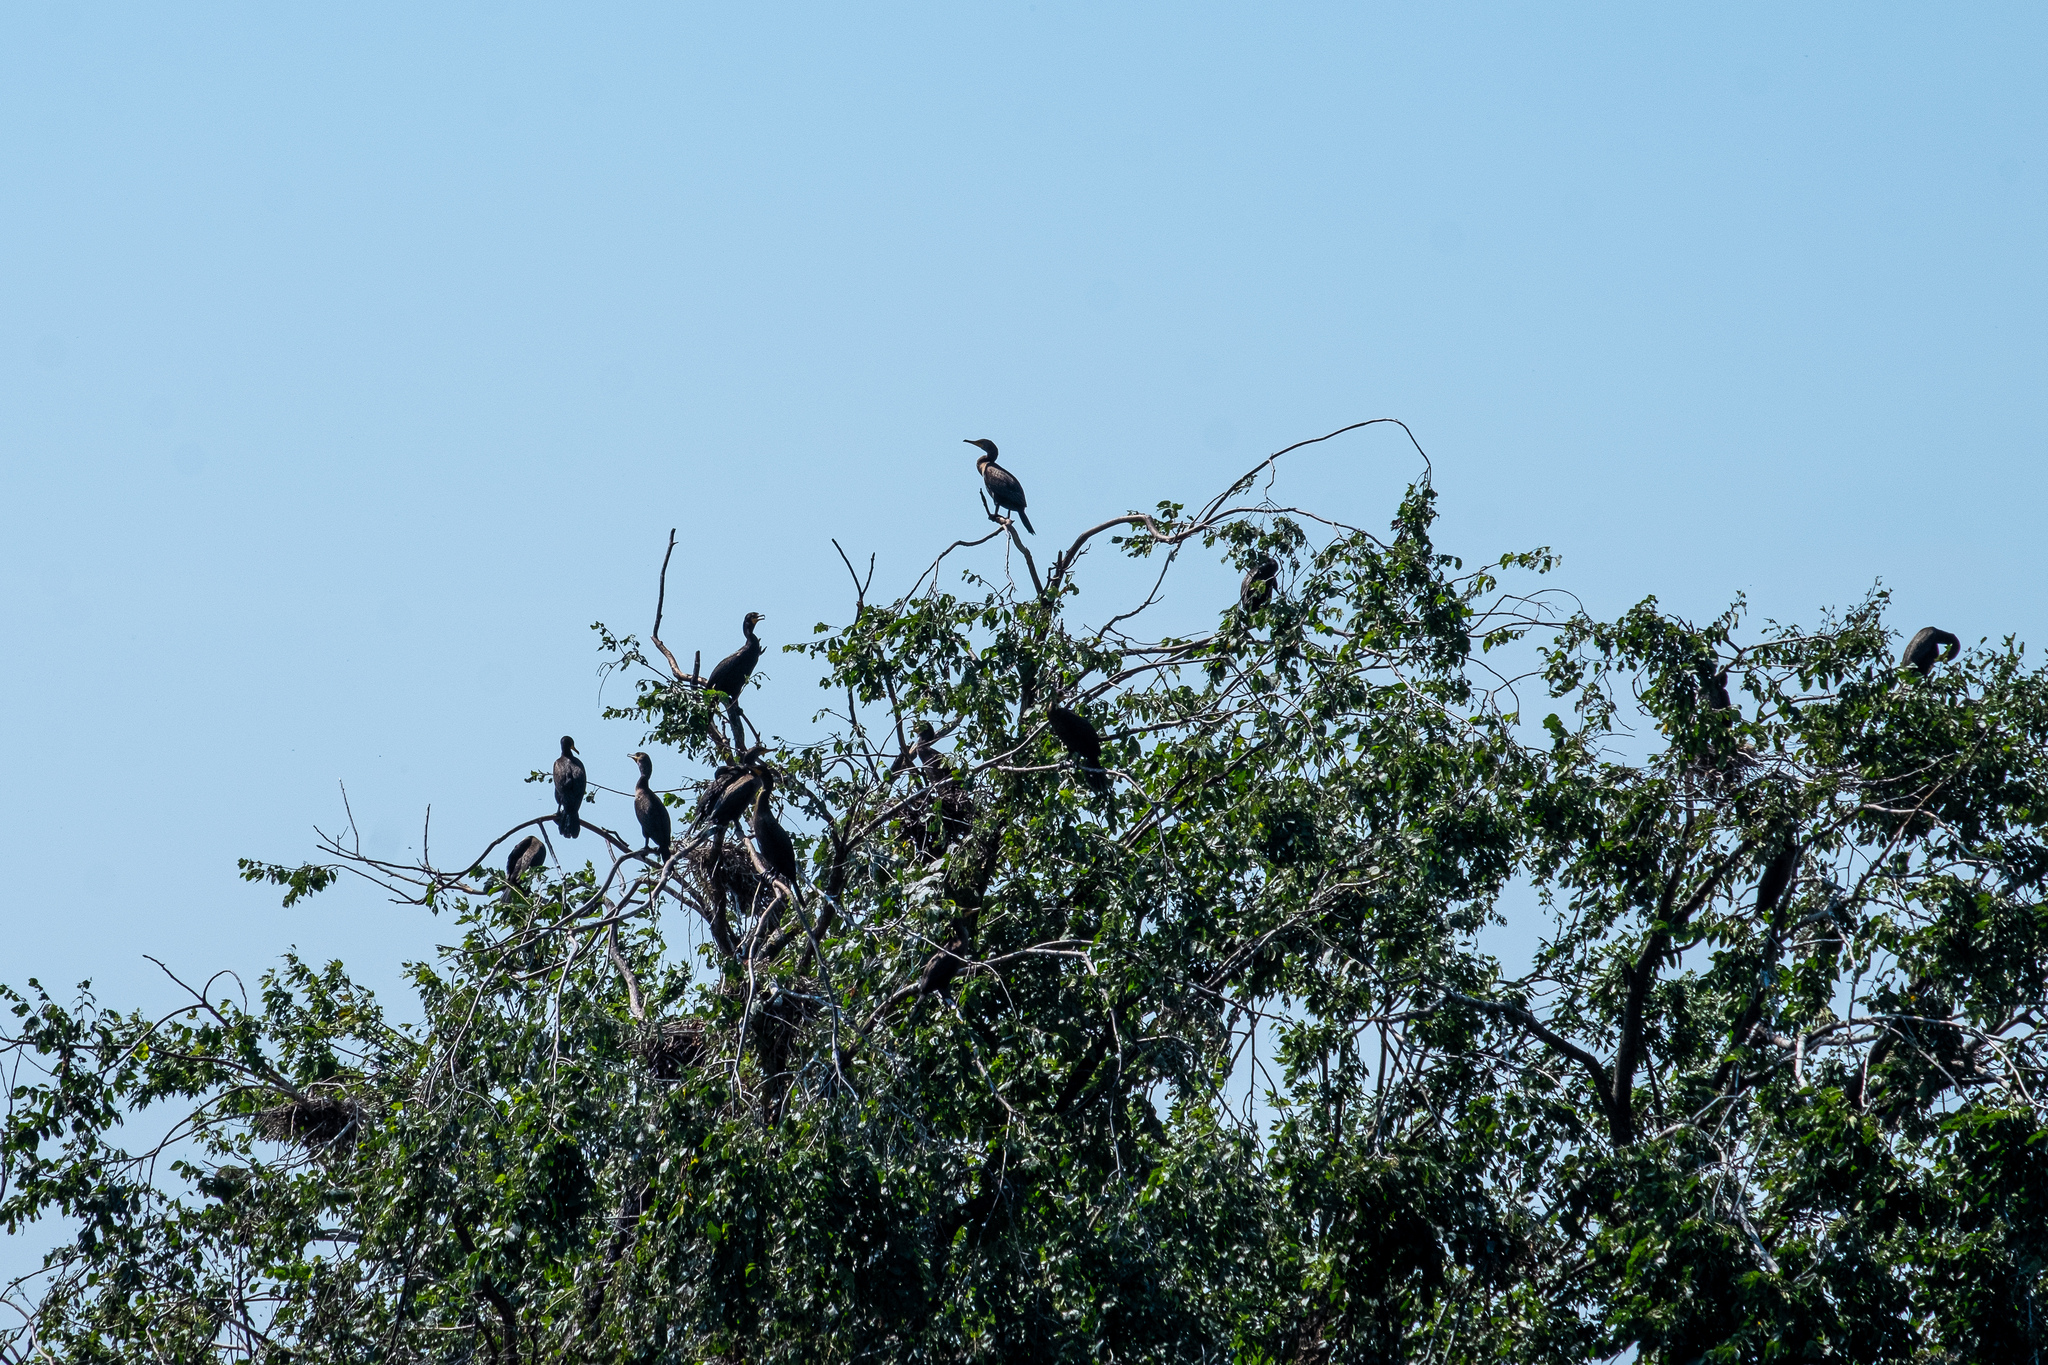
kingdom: Animalia
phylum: Chordata
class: Aves
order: Suliformes
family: Phalacrocoracidae
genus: Phalacrocorax
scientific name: Phalacrocorax auritus
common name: Double-crested cormorant
